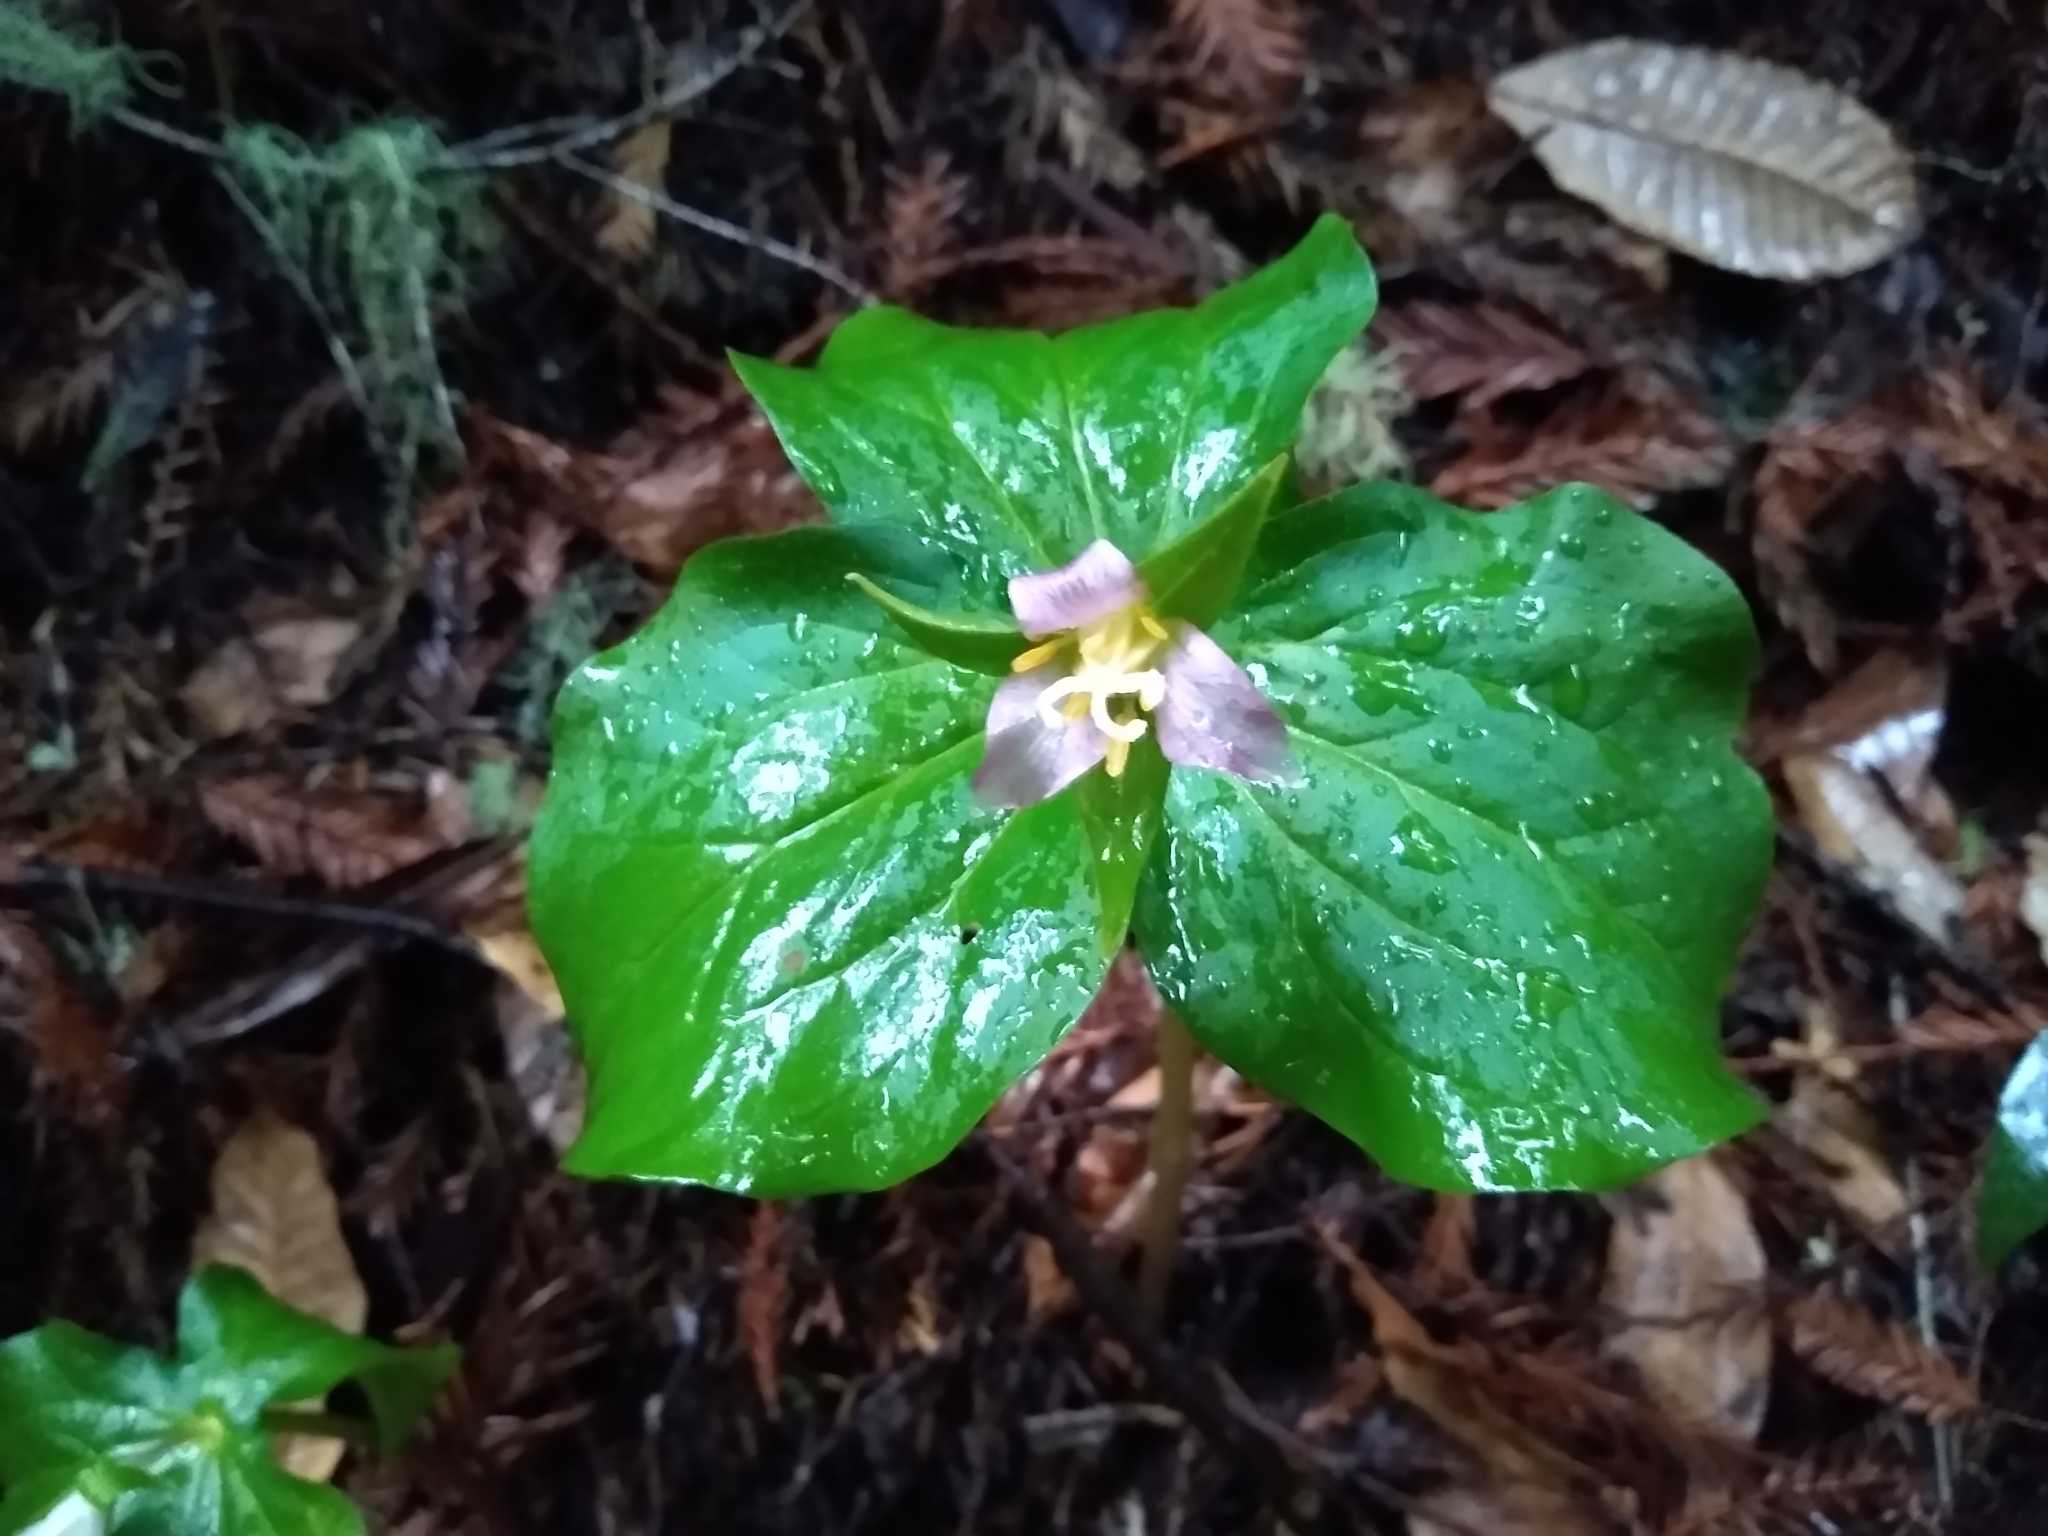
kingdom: Plantae
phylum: Tracheophyta
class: Liliopsida
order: Liliales
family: Melanthiaceae
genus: Trillium
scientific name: Trillium ovatum
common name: Pacific trillium
